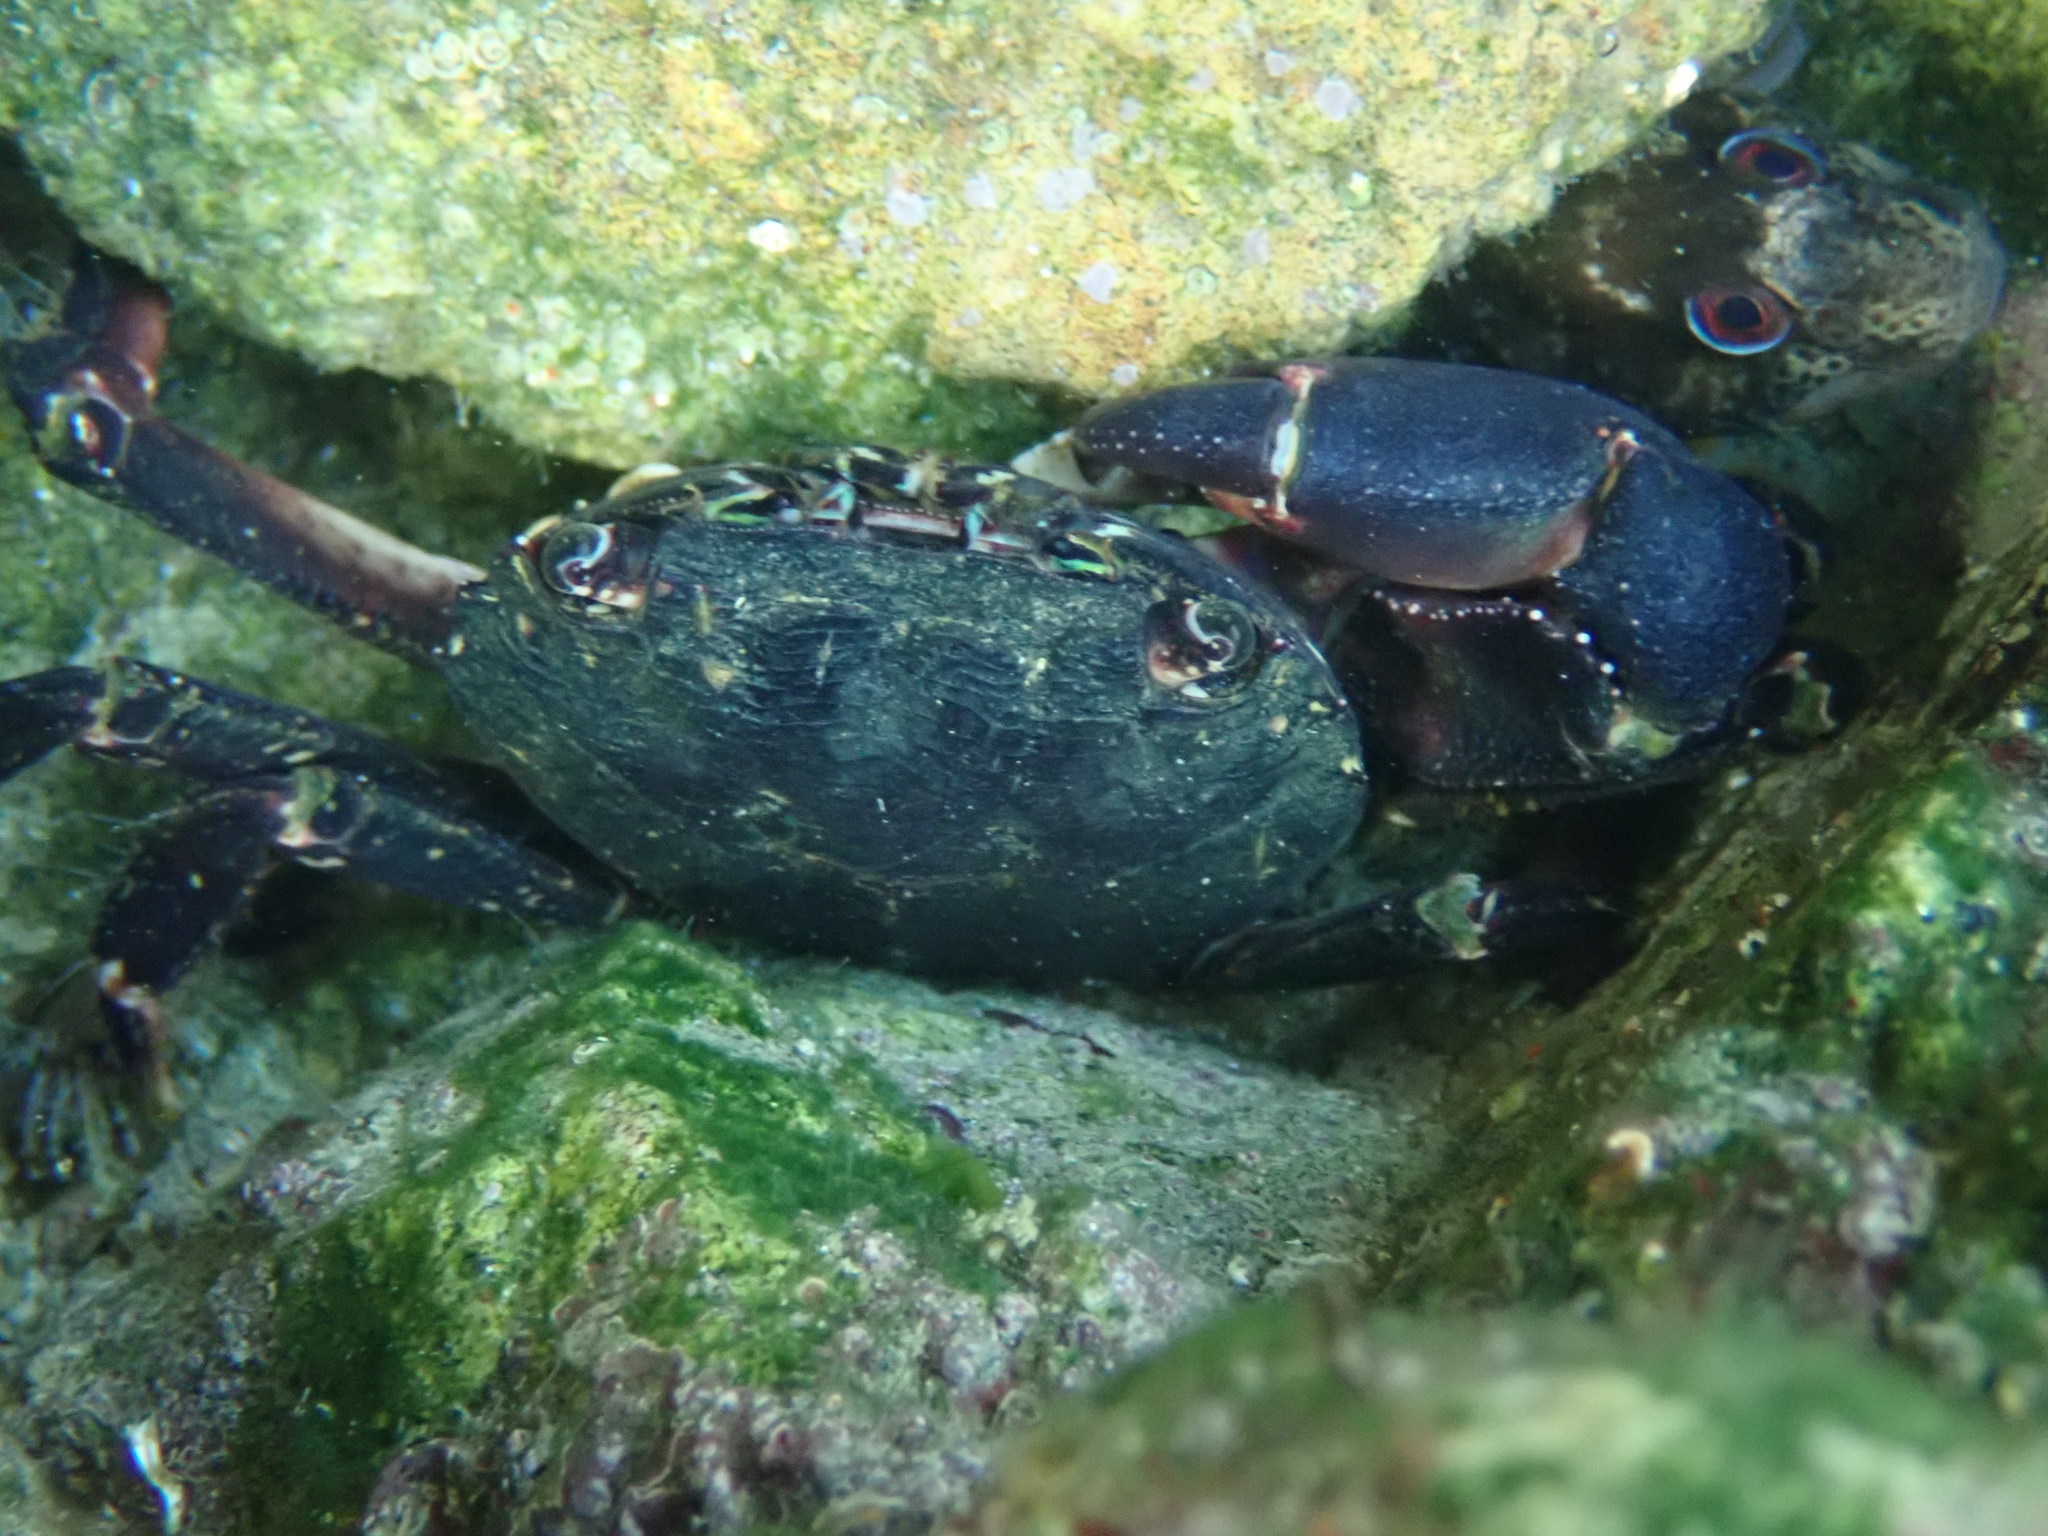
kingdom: Animalia
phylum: Arthropoda
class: Malacostraca
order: Decapoda
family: Grapsidae
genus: Pachygrapsus
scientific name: Pachygrapsus marmoratus
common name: Marbled rock crab
